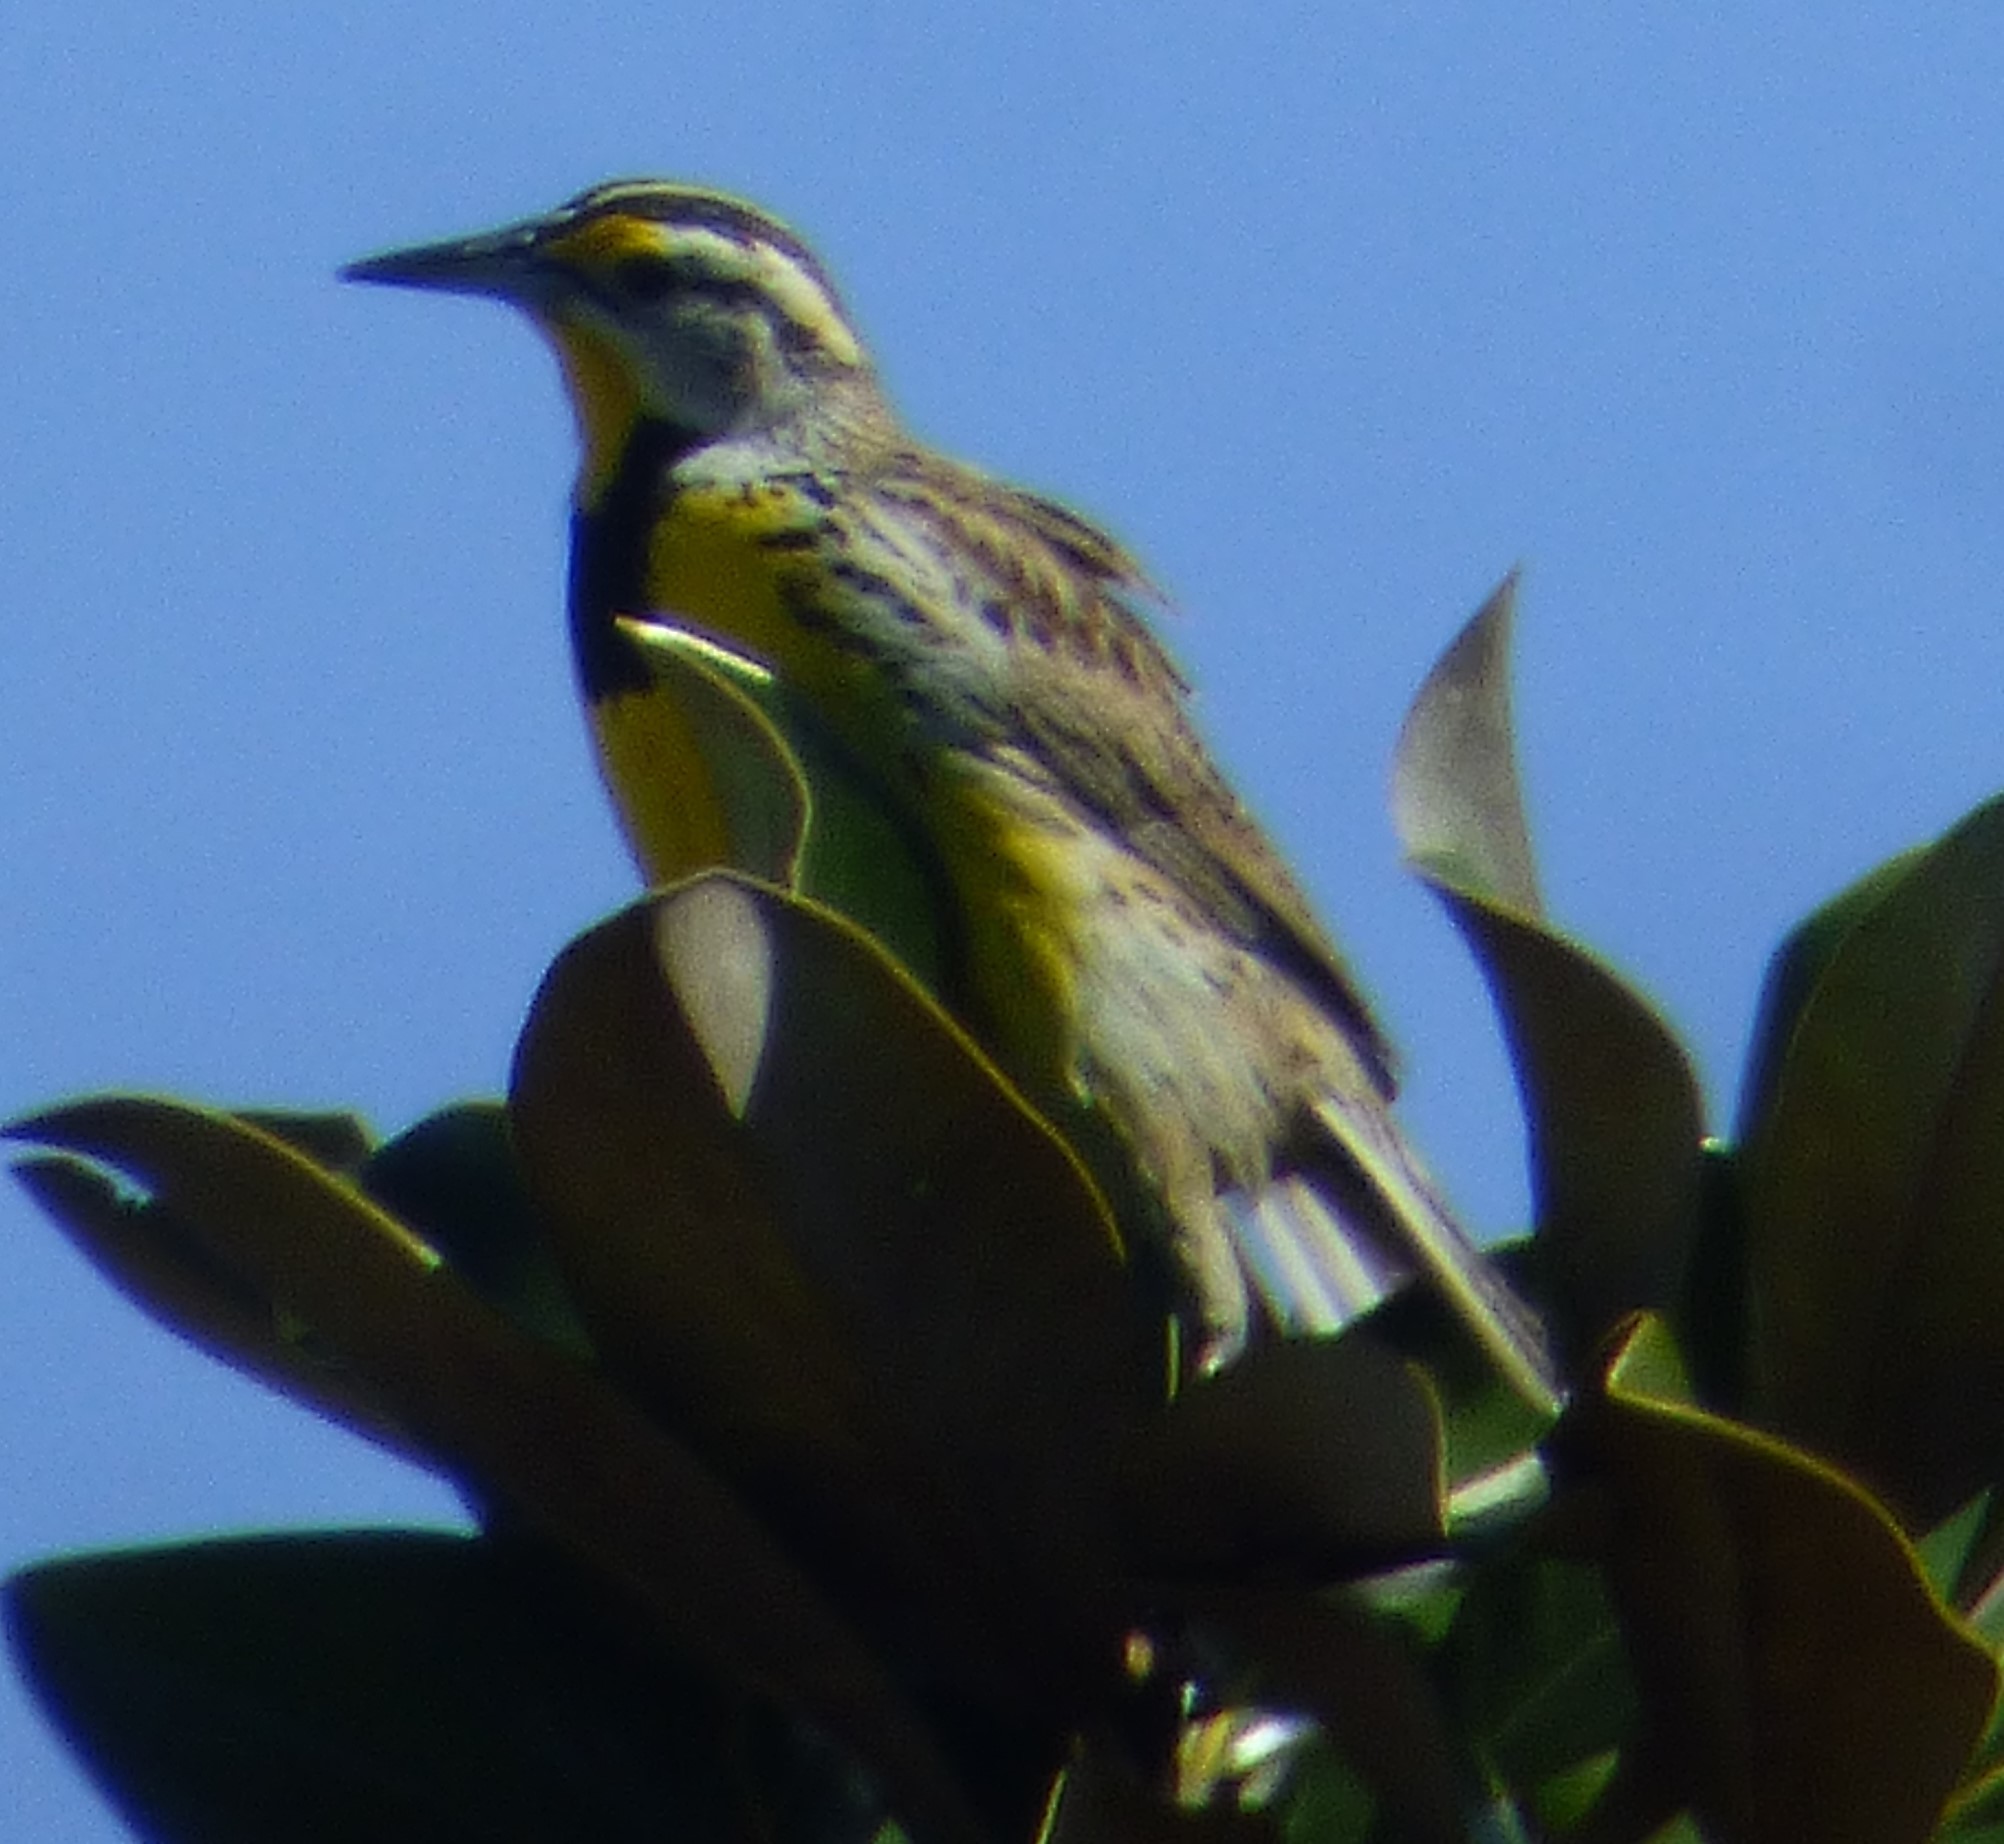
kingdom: Animalia
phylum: Chordata
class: Aves
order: Passeriformes
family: Icteridae
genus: Sturnella
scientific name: Sturnella magna
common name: Eastern meadowlark
